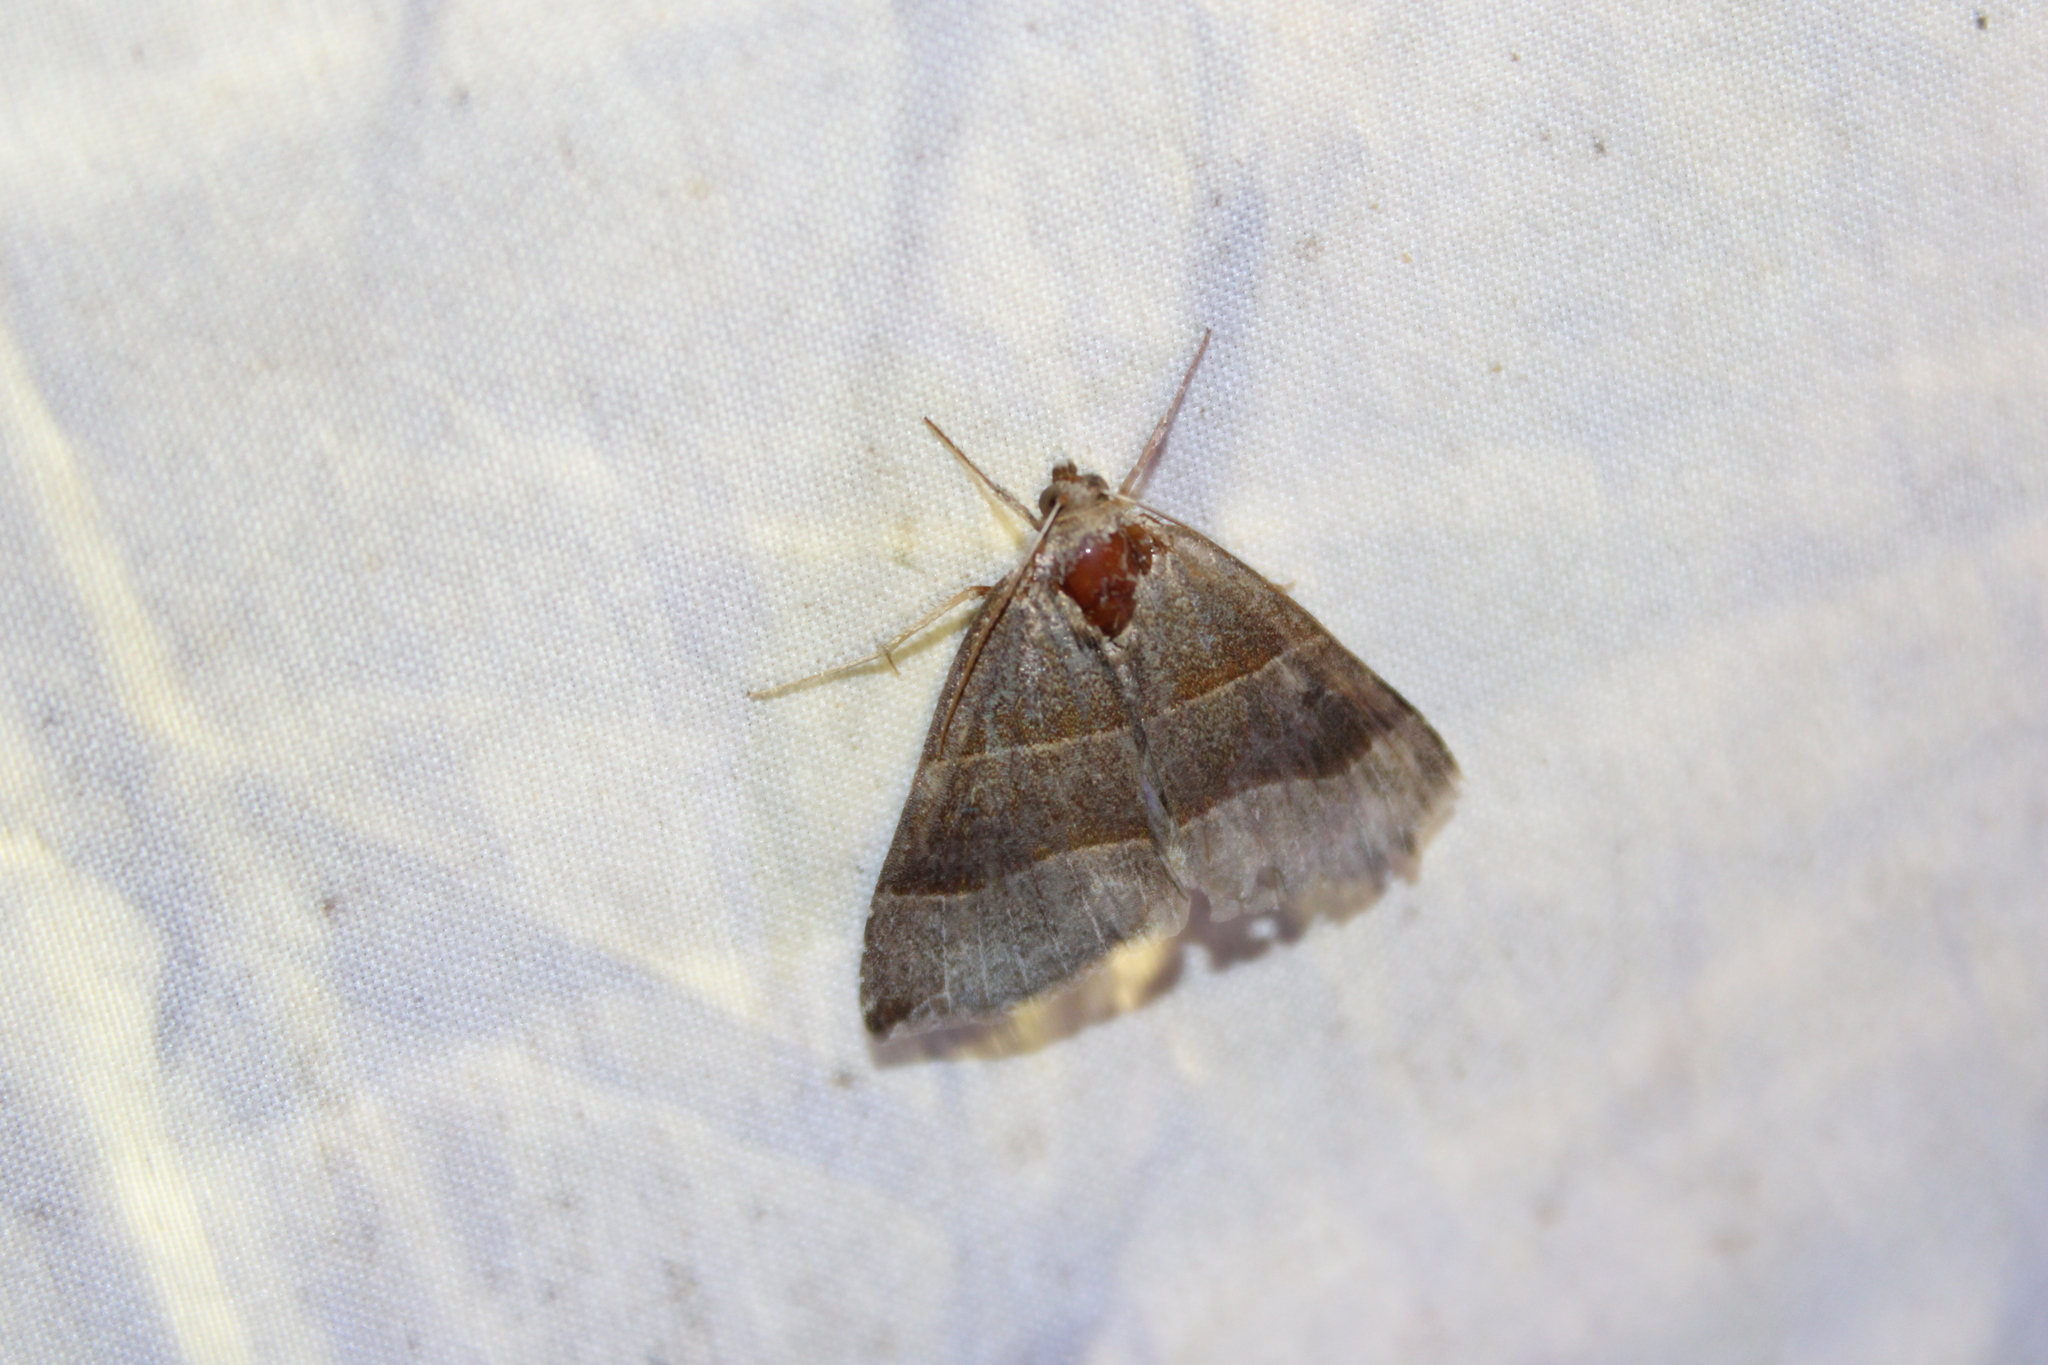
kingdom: Animalia
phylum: Arthropoda
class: Insecta
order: Lepidoptera
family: Erebidae
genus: Parallelia
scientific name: Parallelia bistriaris
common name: Maple looper moth
